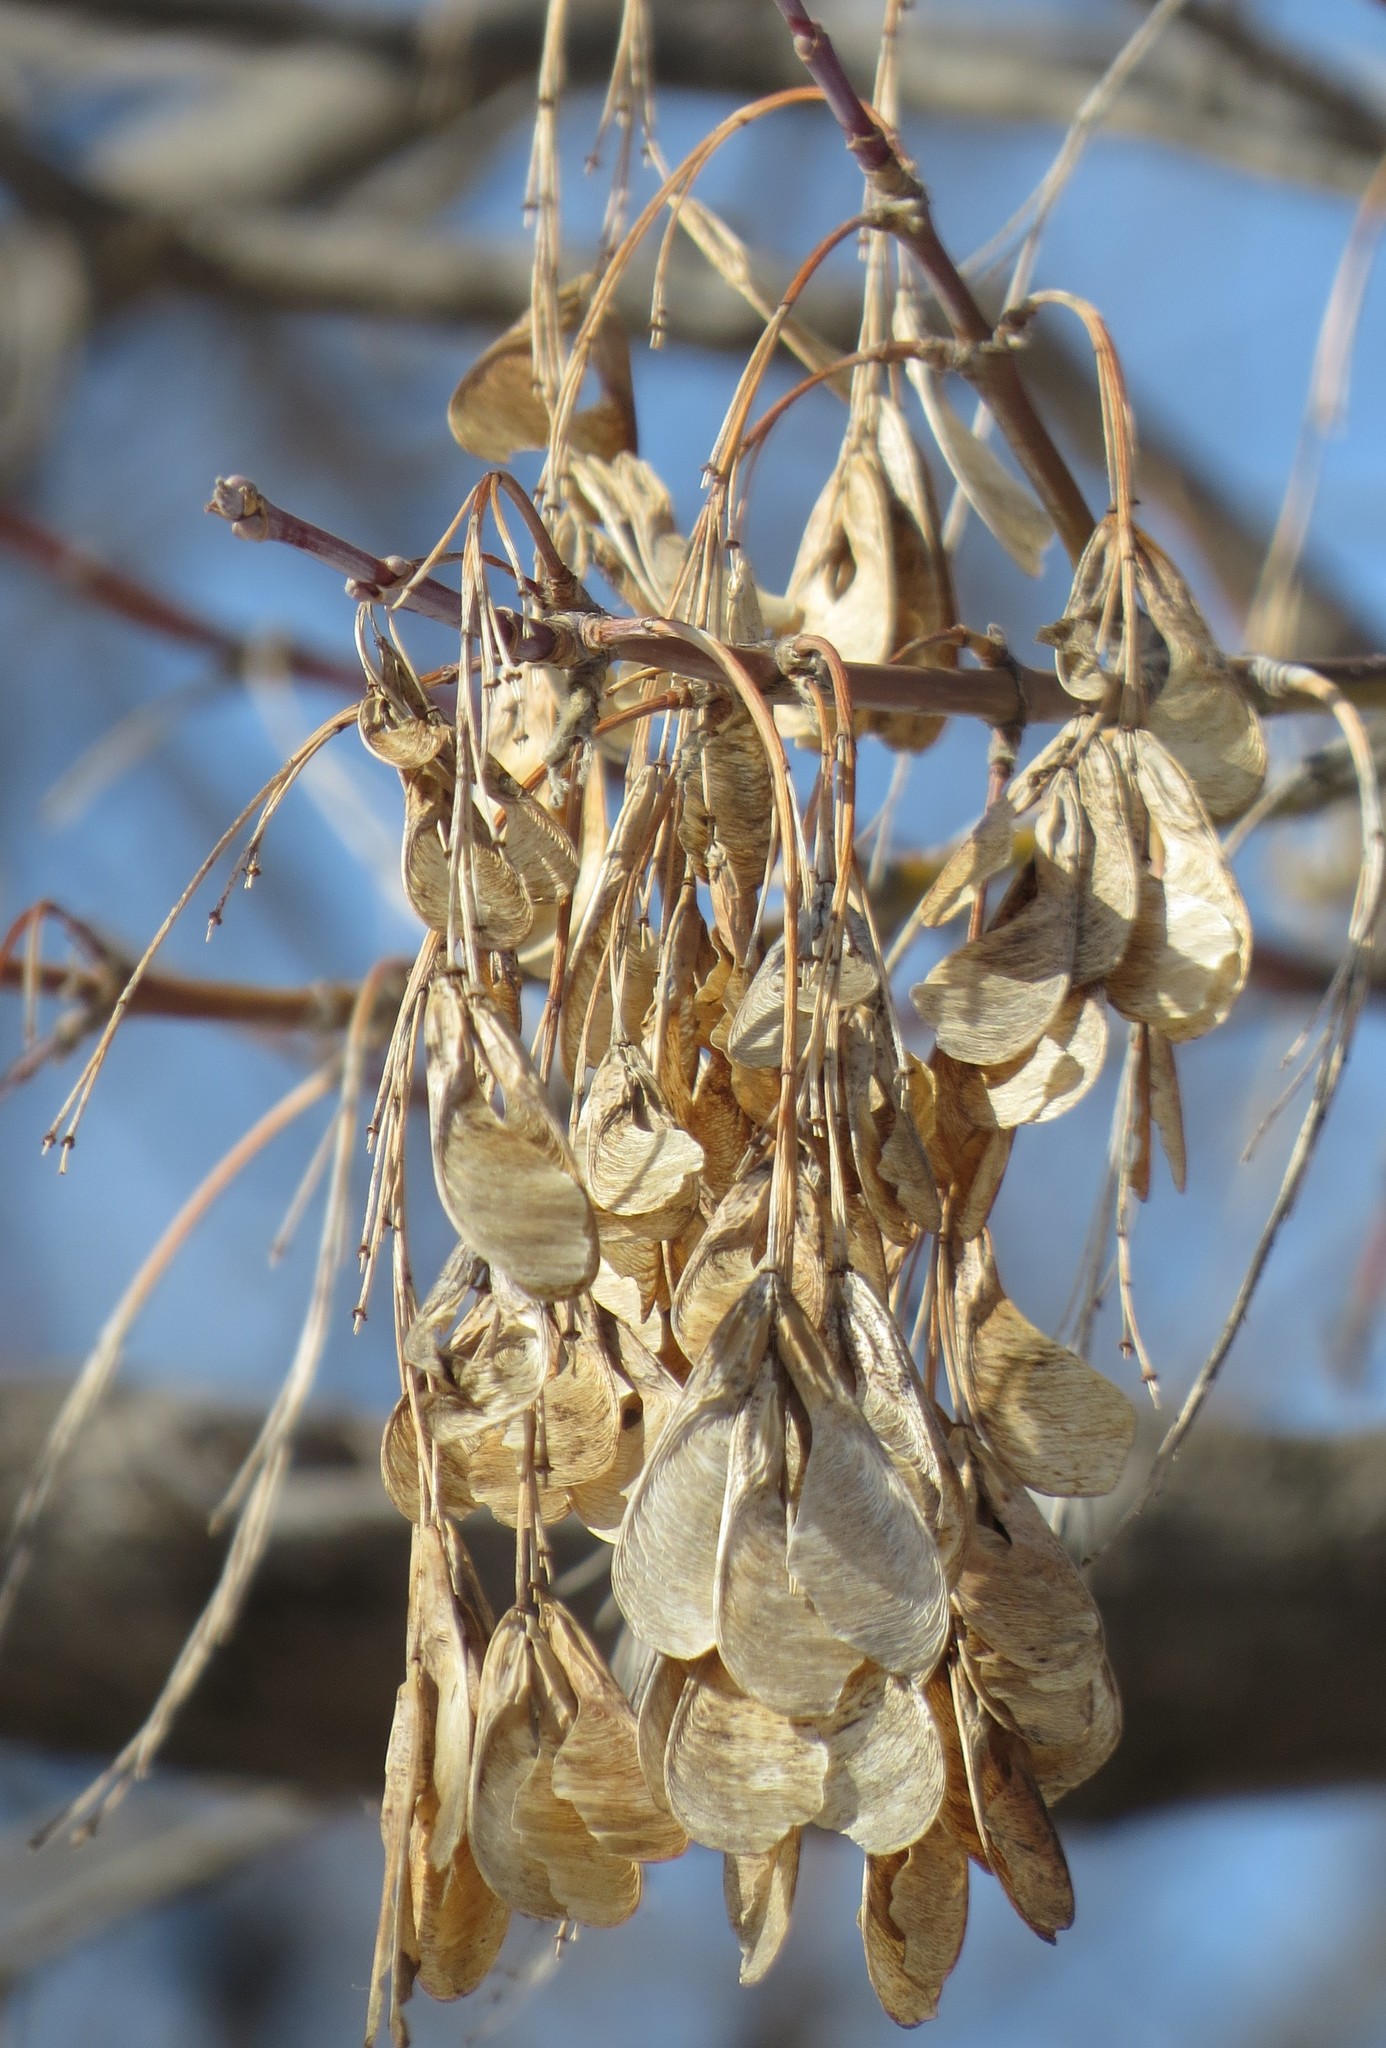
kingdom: Plantae
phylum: Tracheophyta
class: Magnoliopsida
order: Sapindales
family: Sapindaceae
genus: Acer
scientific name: Acer negundo
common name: Ashleaf maple
